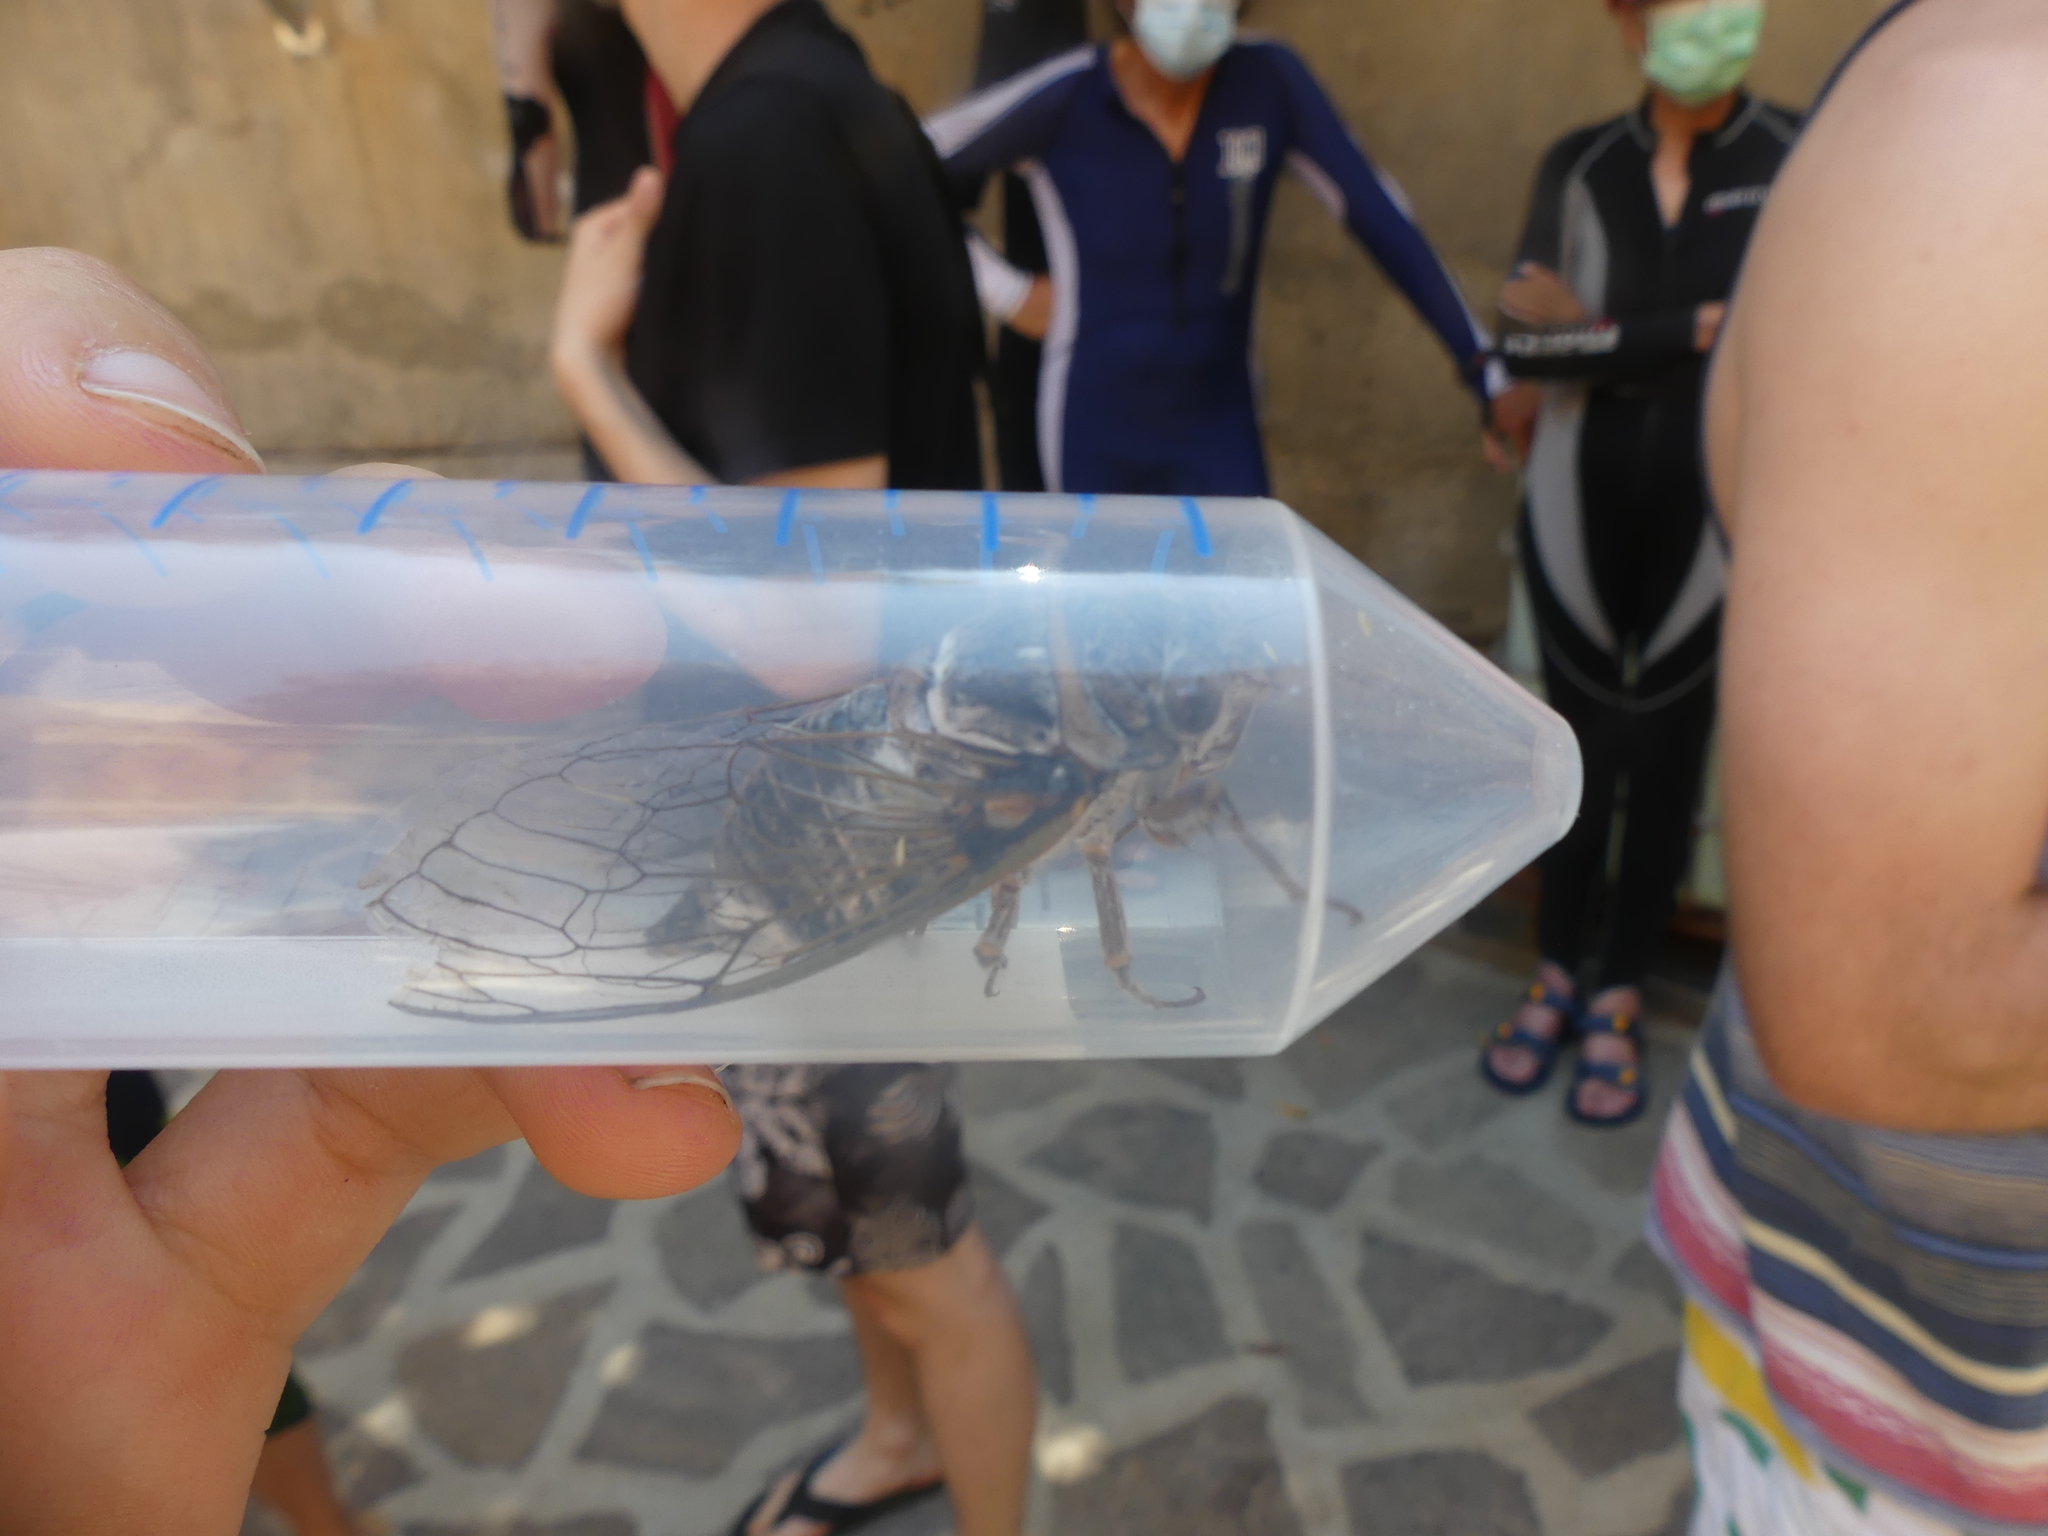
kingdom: Animalia
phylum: Arthropoda
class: Insecta
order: Hemiptera
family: Cicadidae
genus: Lyristes
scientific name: Lyristes plebejus
